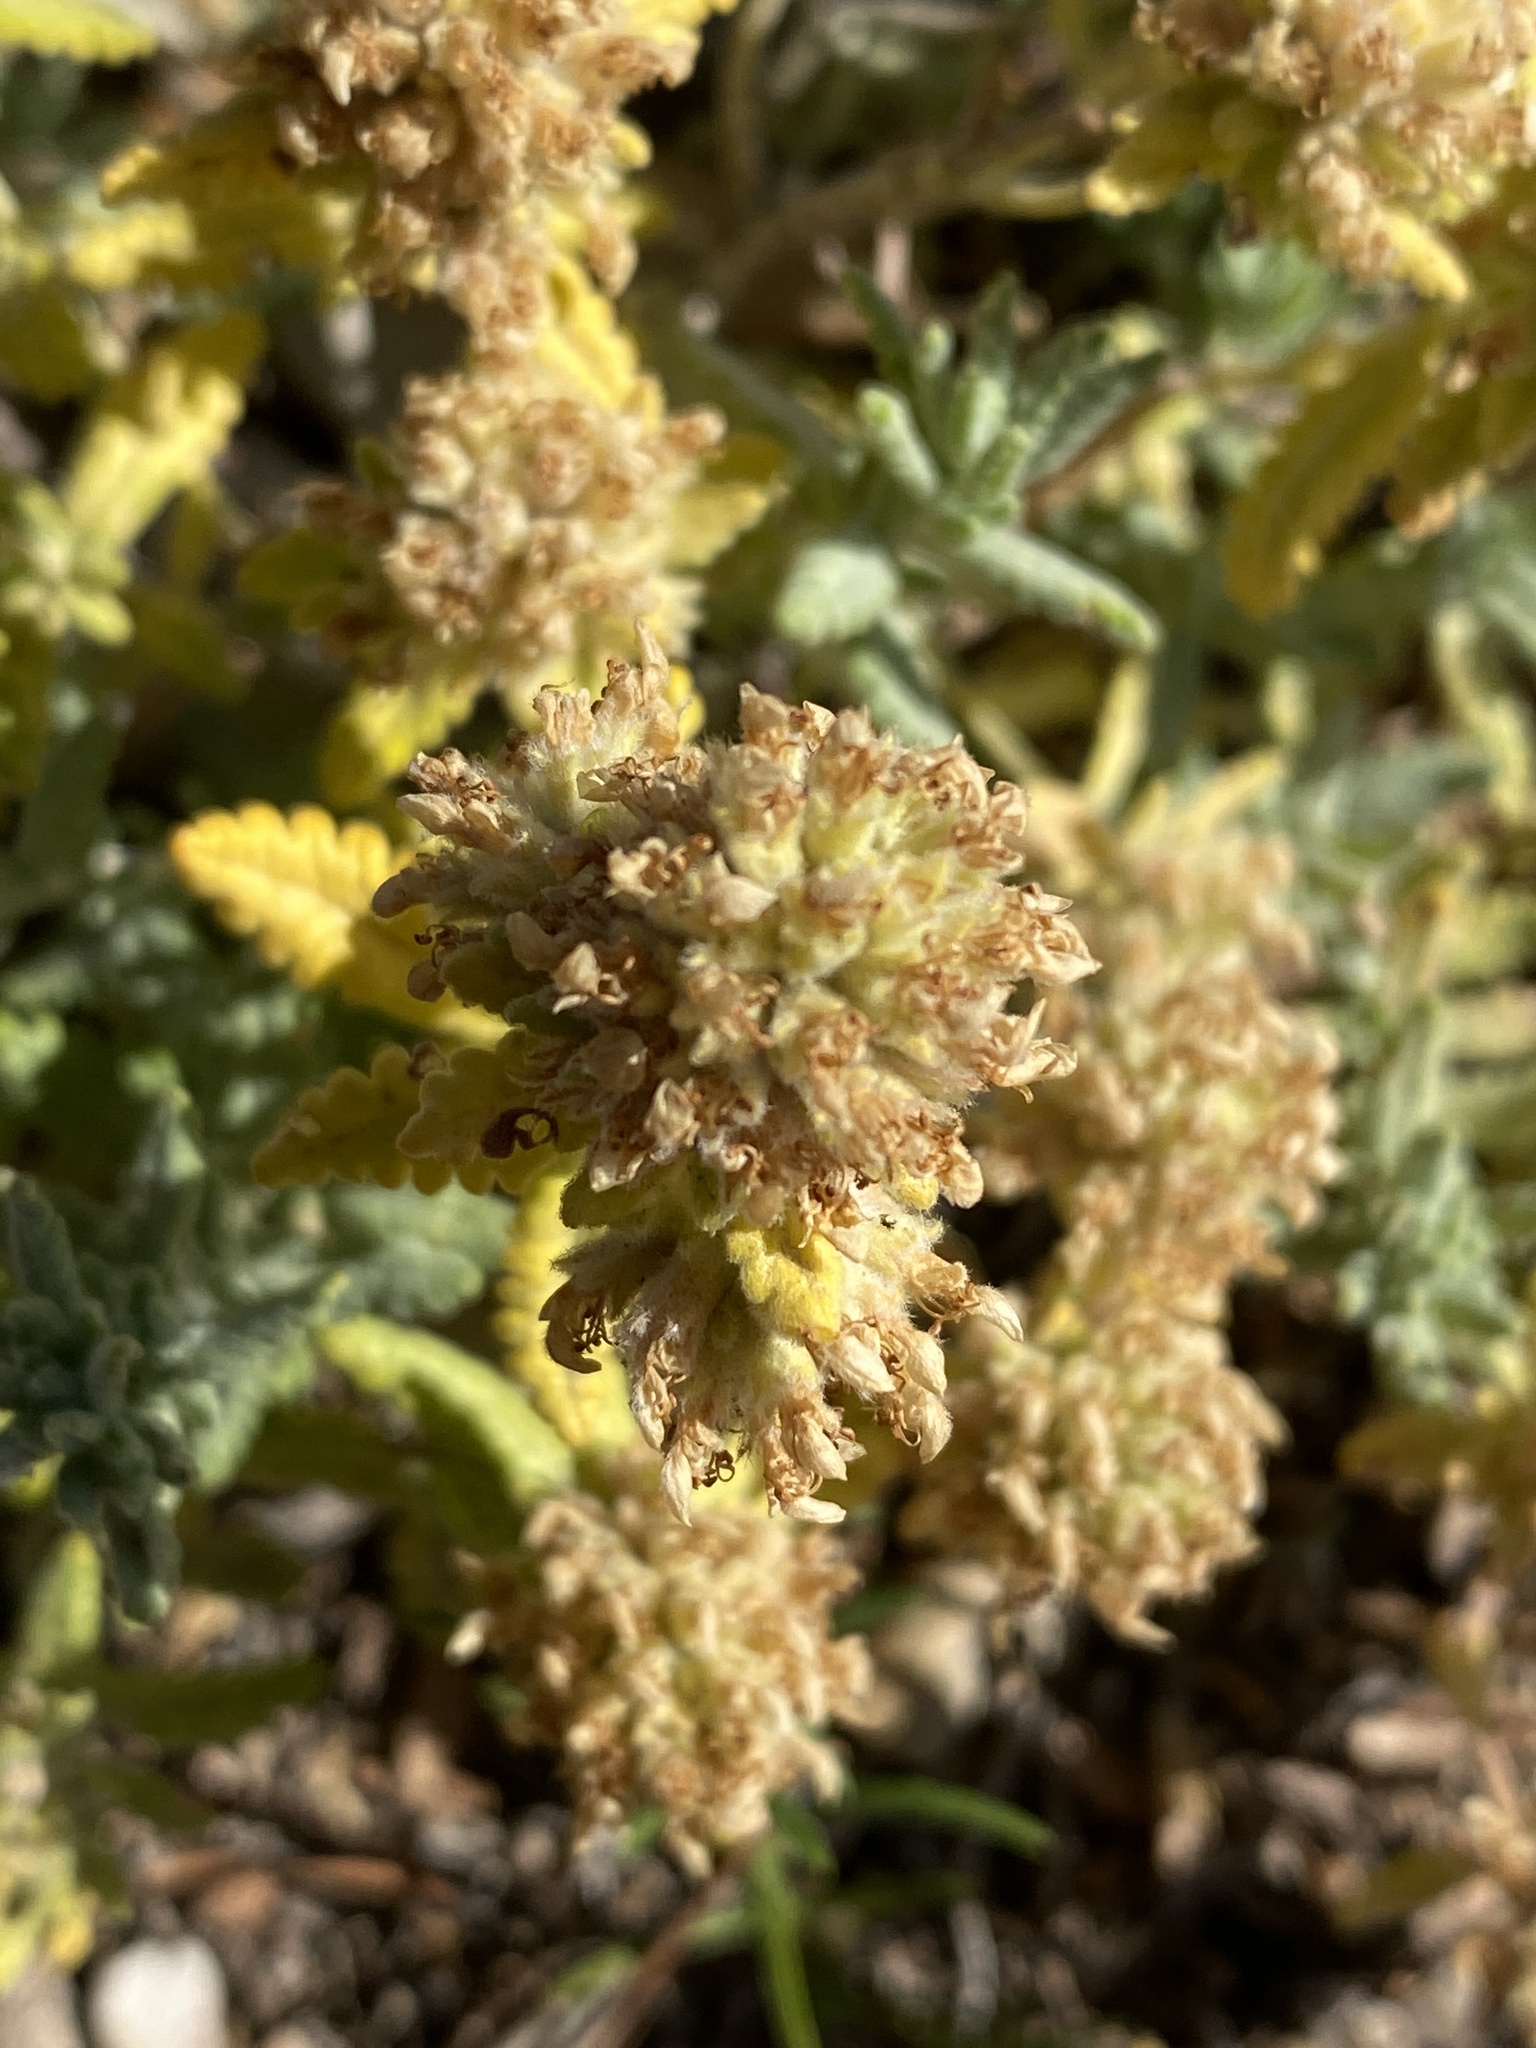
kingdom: Plantae
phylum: Tracheophyta
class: Magnoliopsida
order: Lamiales
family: Lamiaceae
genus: Teucrium
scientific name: Teucrium aureum
